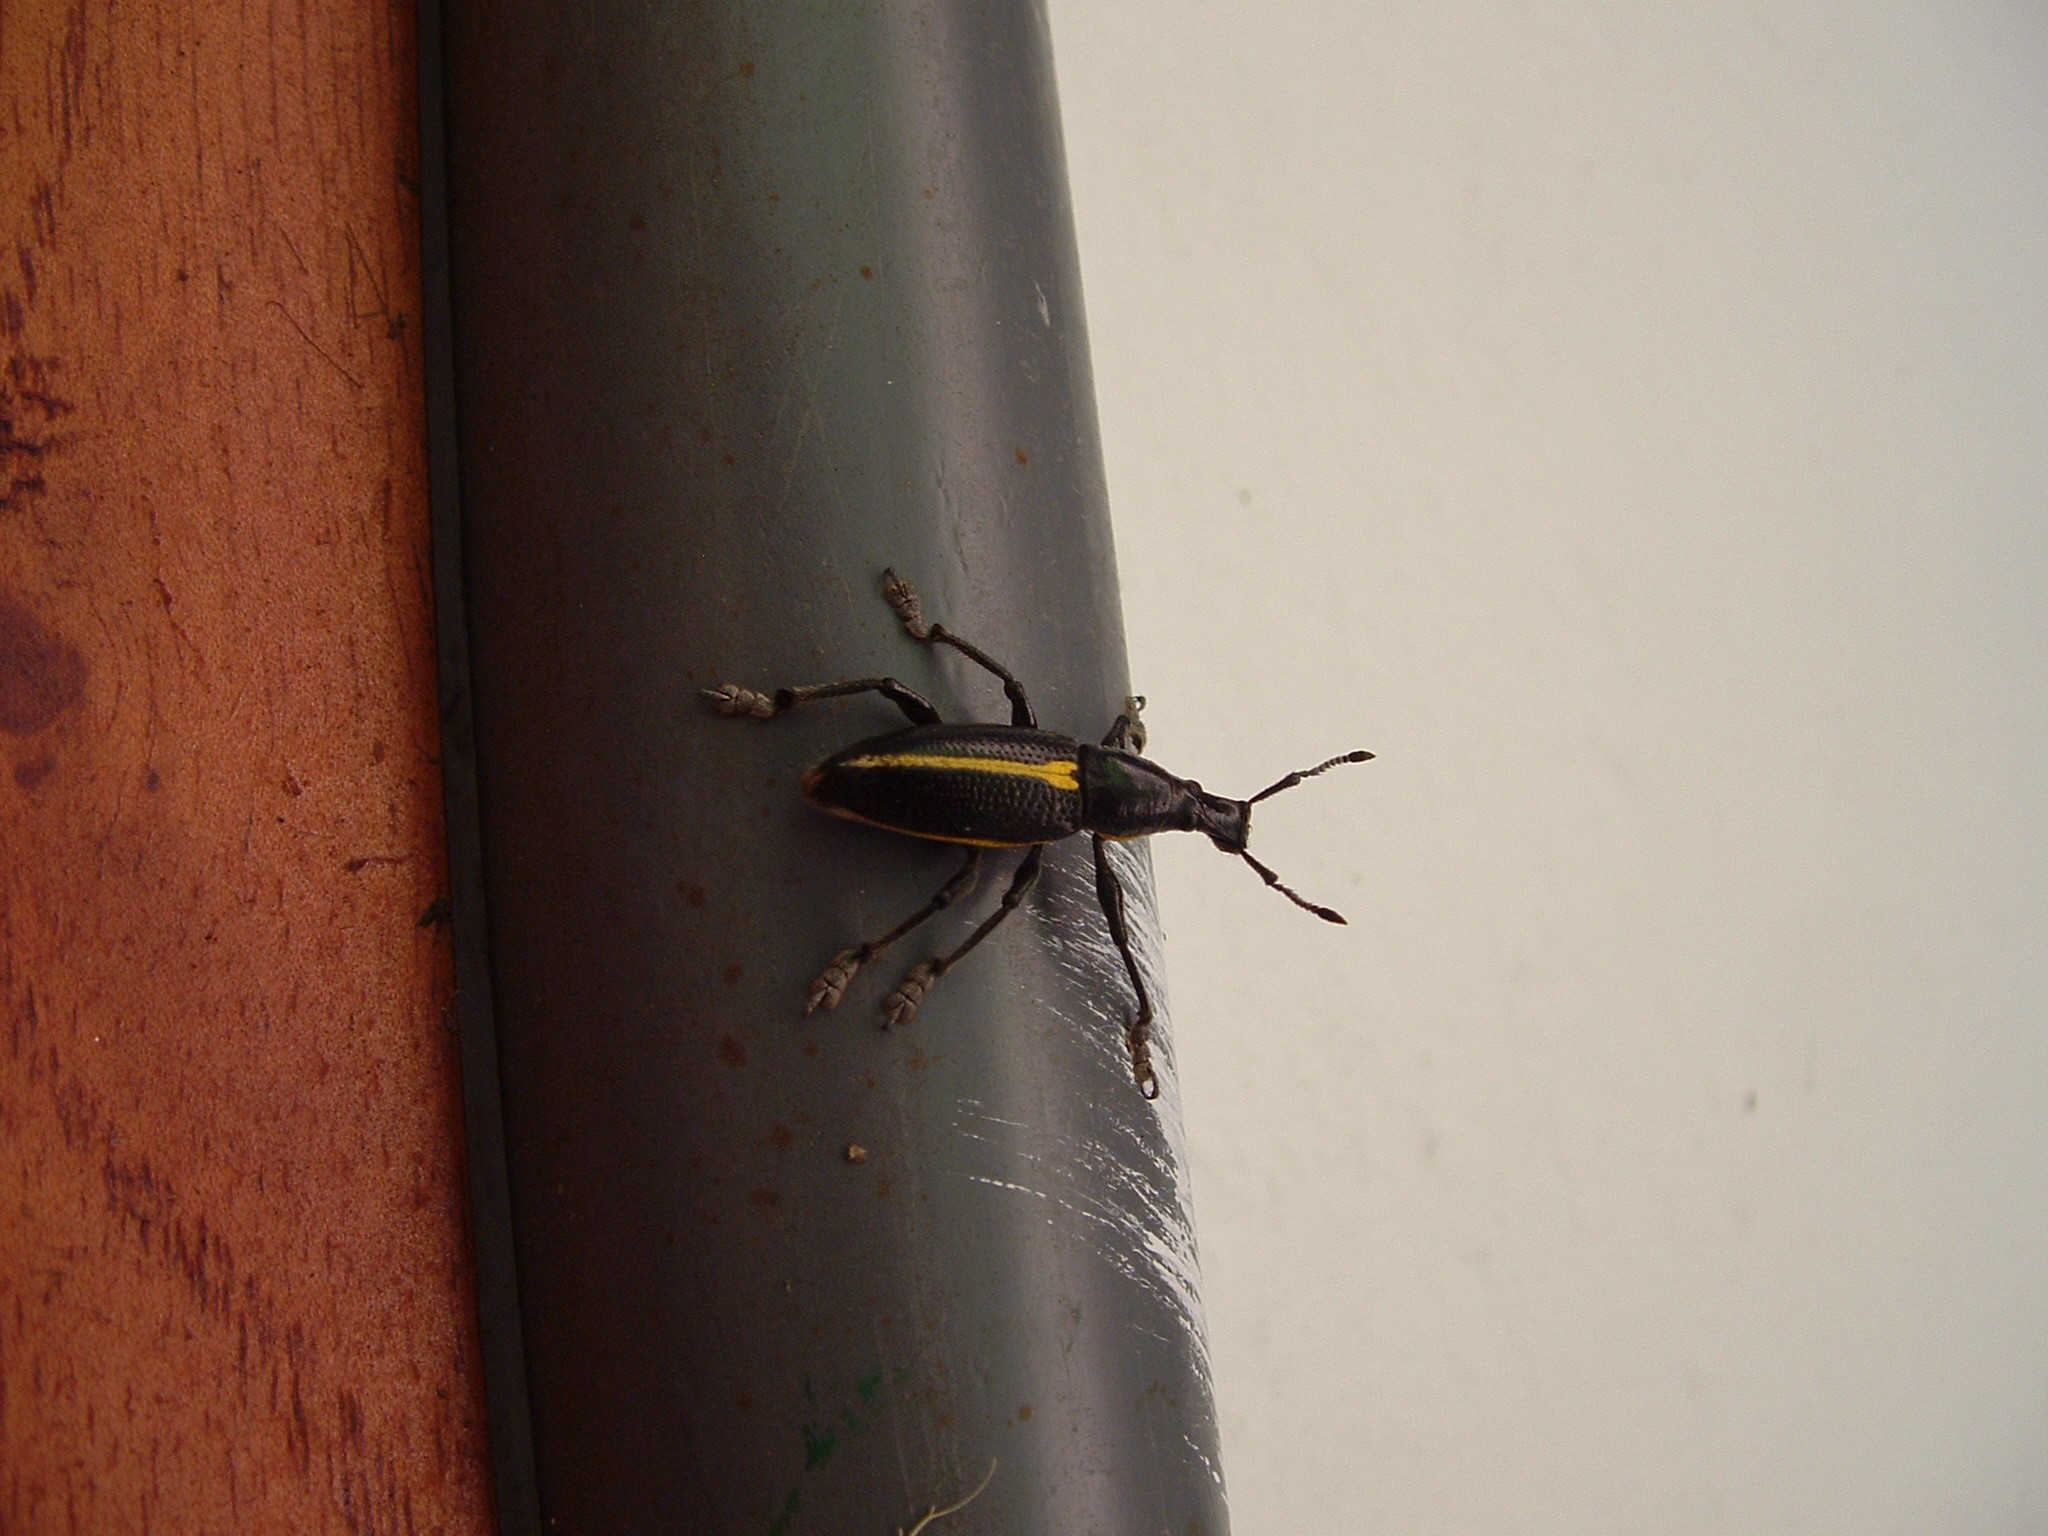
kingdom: Animalia
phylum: Arthropoda
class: Insecta
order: Coleoptera
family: Curculionidae
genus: Rhinospathe
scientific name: Rhinospathe albomarginata
